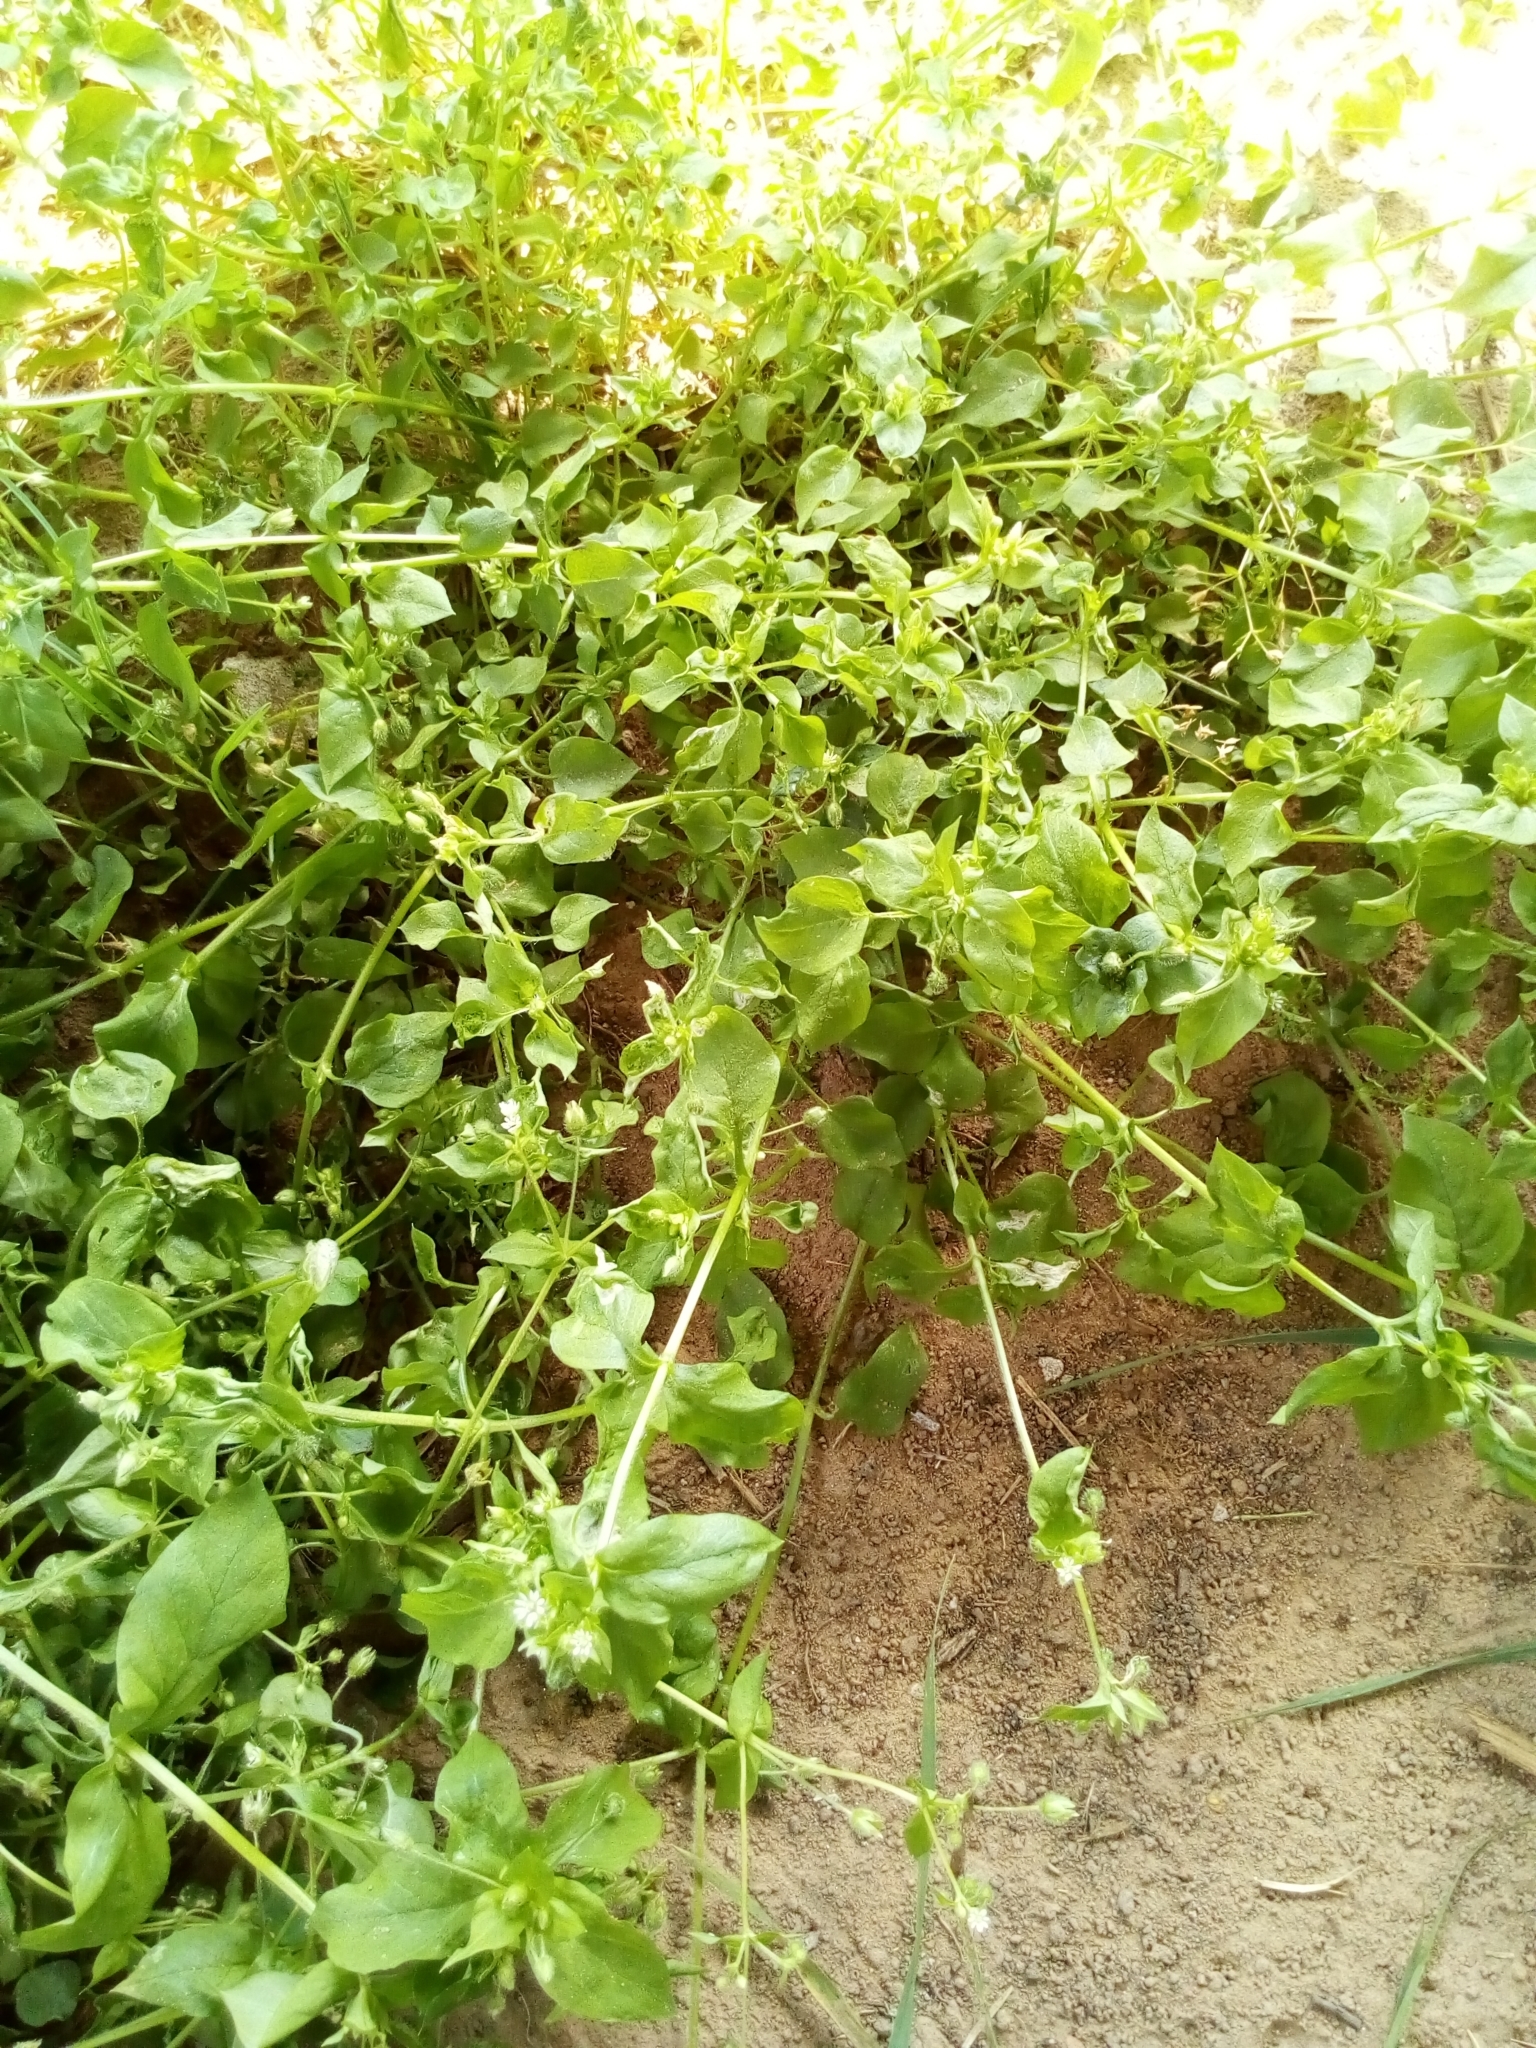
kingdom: Plantae
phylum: Tracheophyta
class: Magnoliopsida
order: Caryophyllales
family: Caryophyllaceae
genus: Stellaria
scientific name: Stellaria media
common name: Common chickweed
